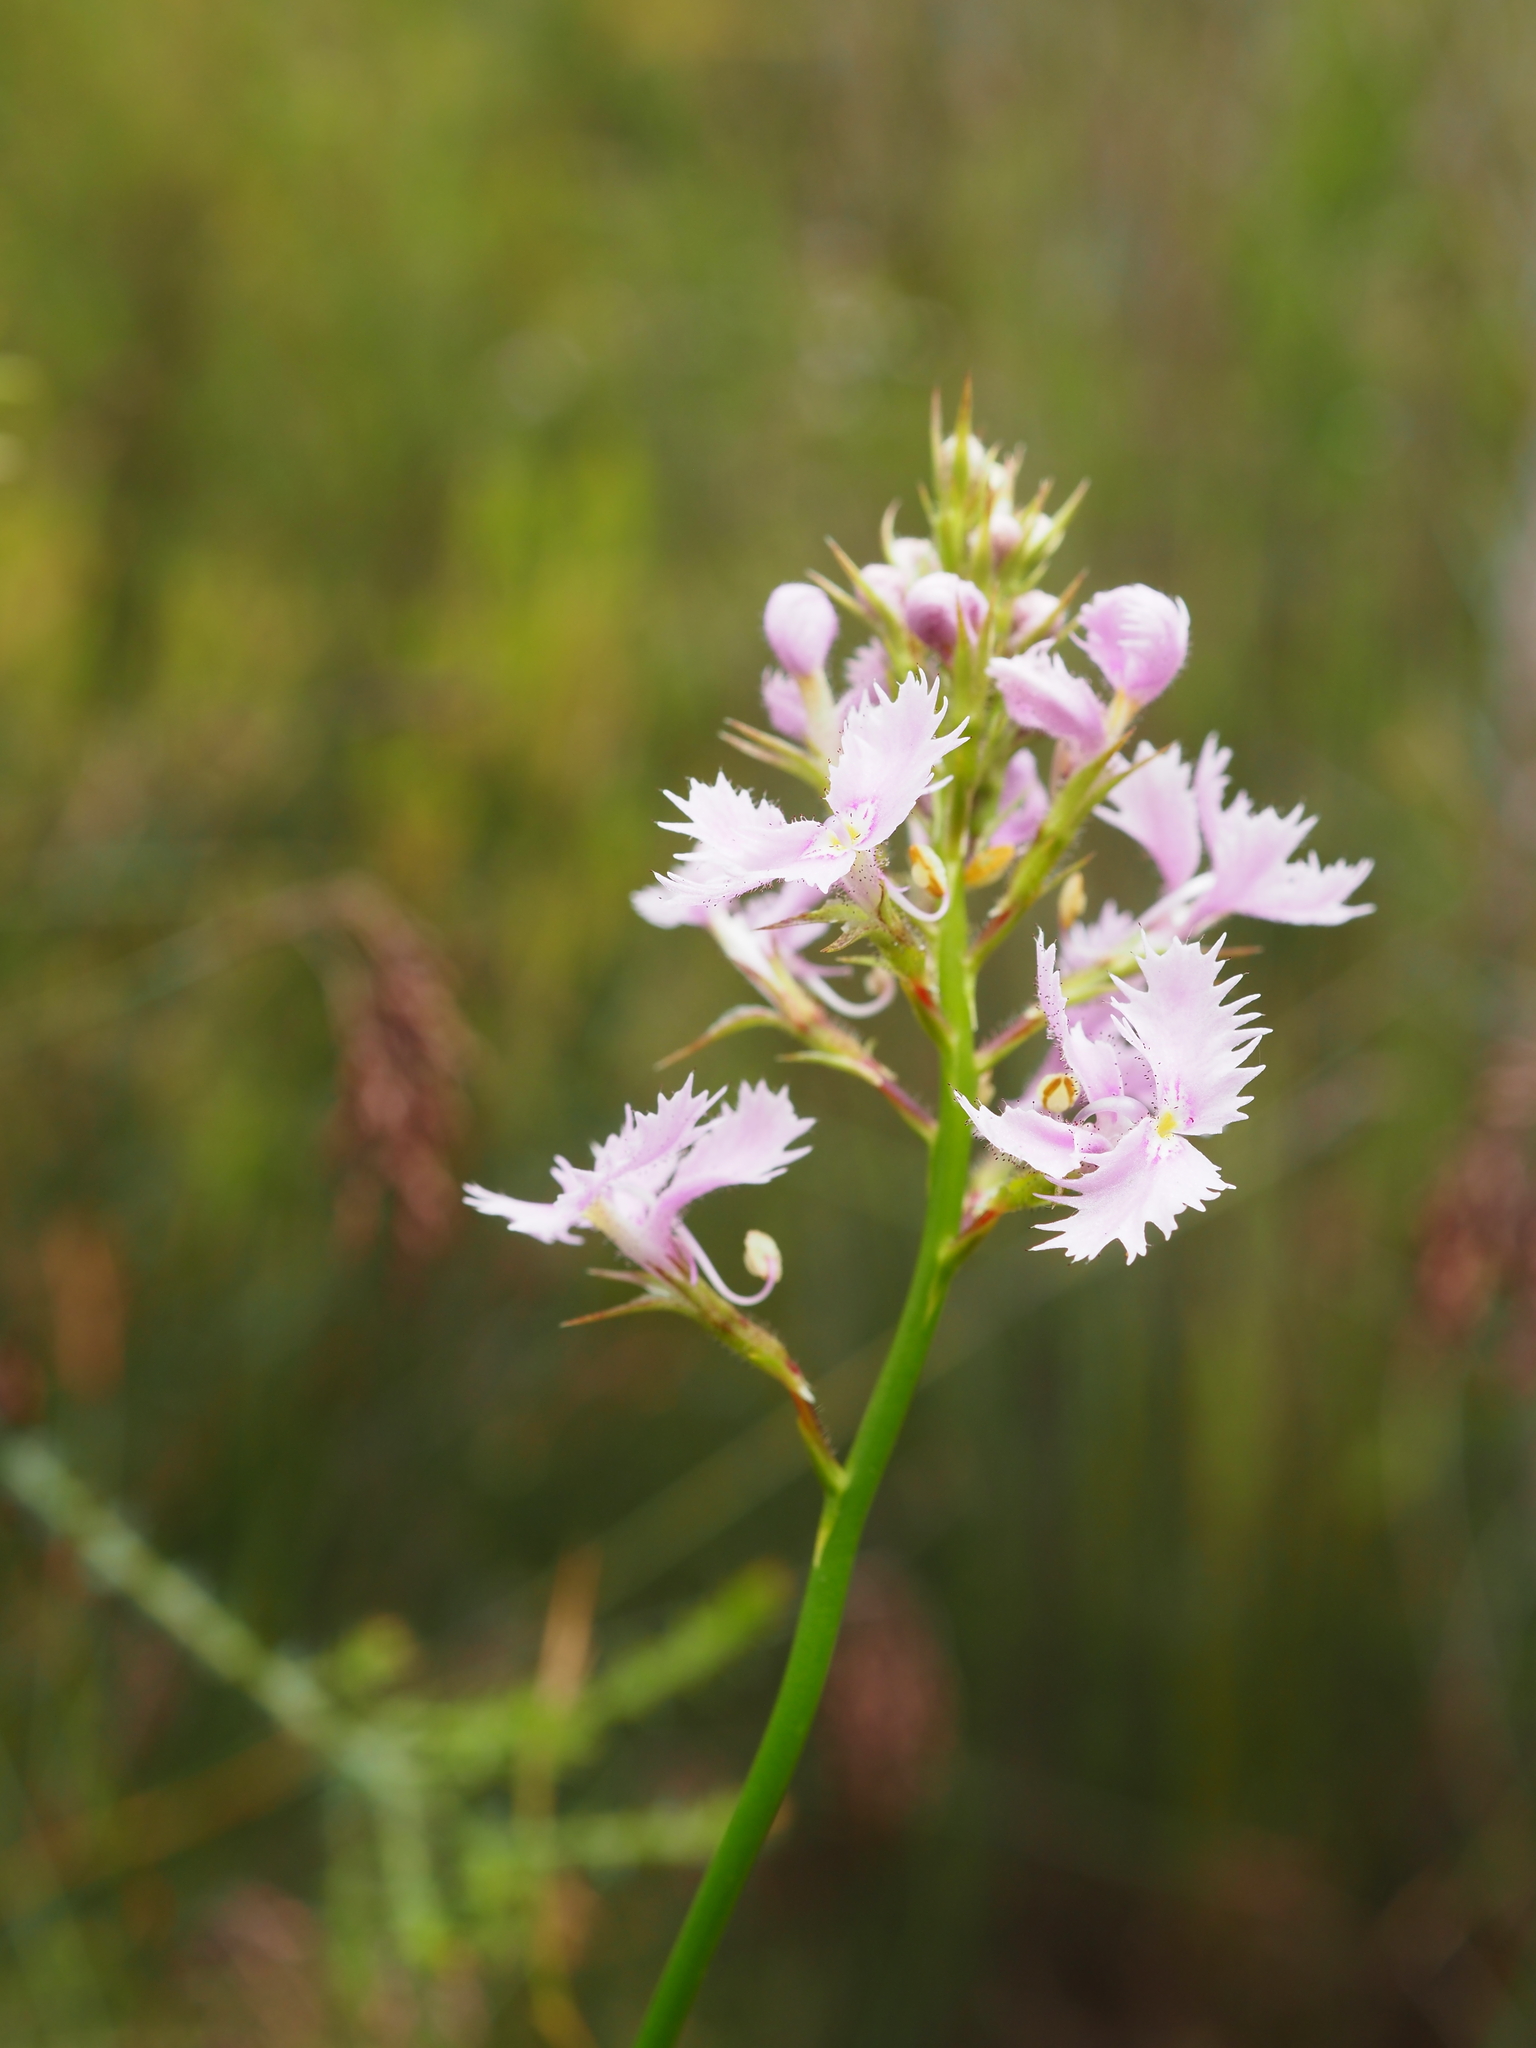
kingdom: Plantae
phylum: Tracheophyta
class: Magnoliopsida
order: Asterales
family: Stylidiaceae
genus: Stylidium
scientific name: Stylidium laciniatum
